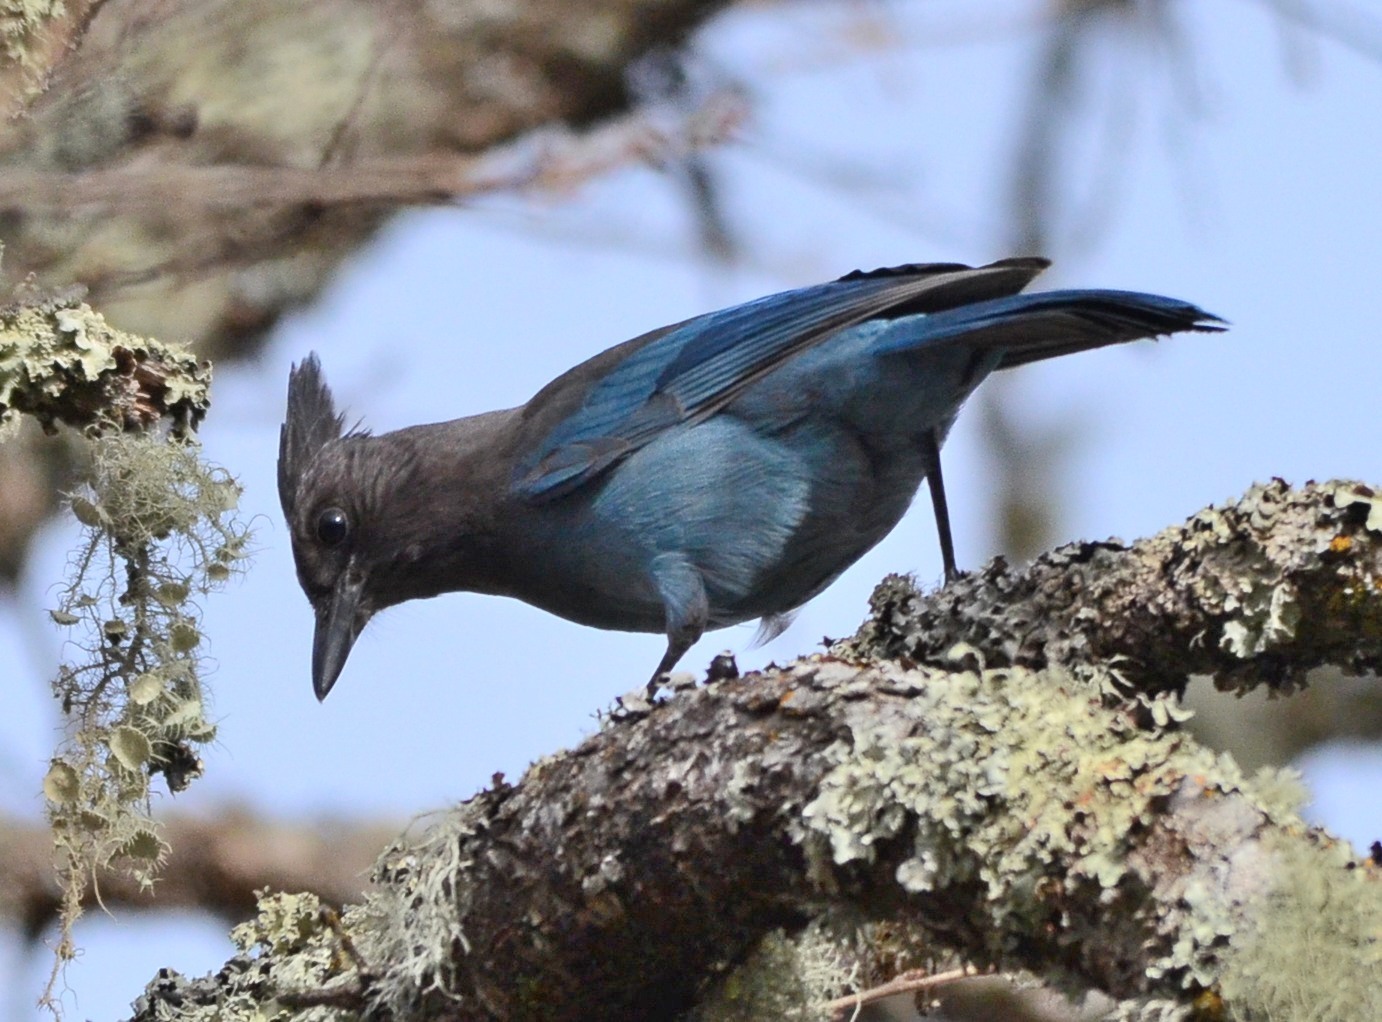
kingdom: Animalia
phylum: Chordata
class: Aves
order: Passeriformes
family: Corvidae
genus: Cyanocitta
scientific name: Cyanocitta stelleri
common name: Steller's jay
